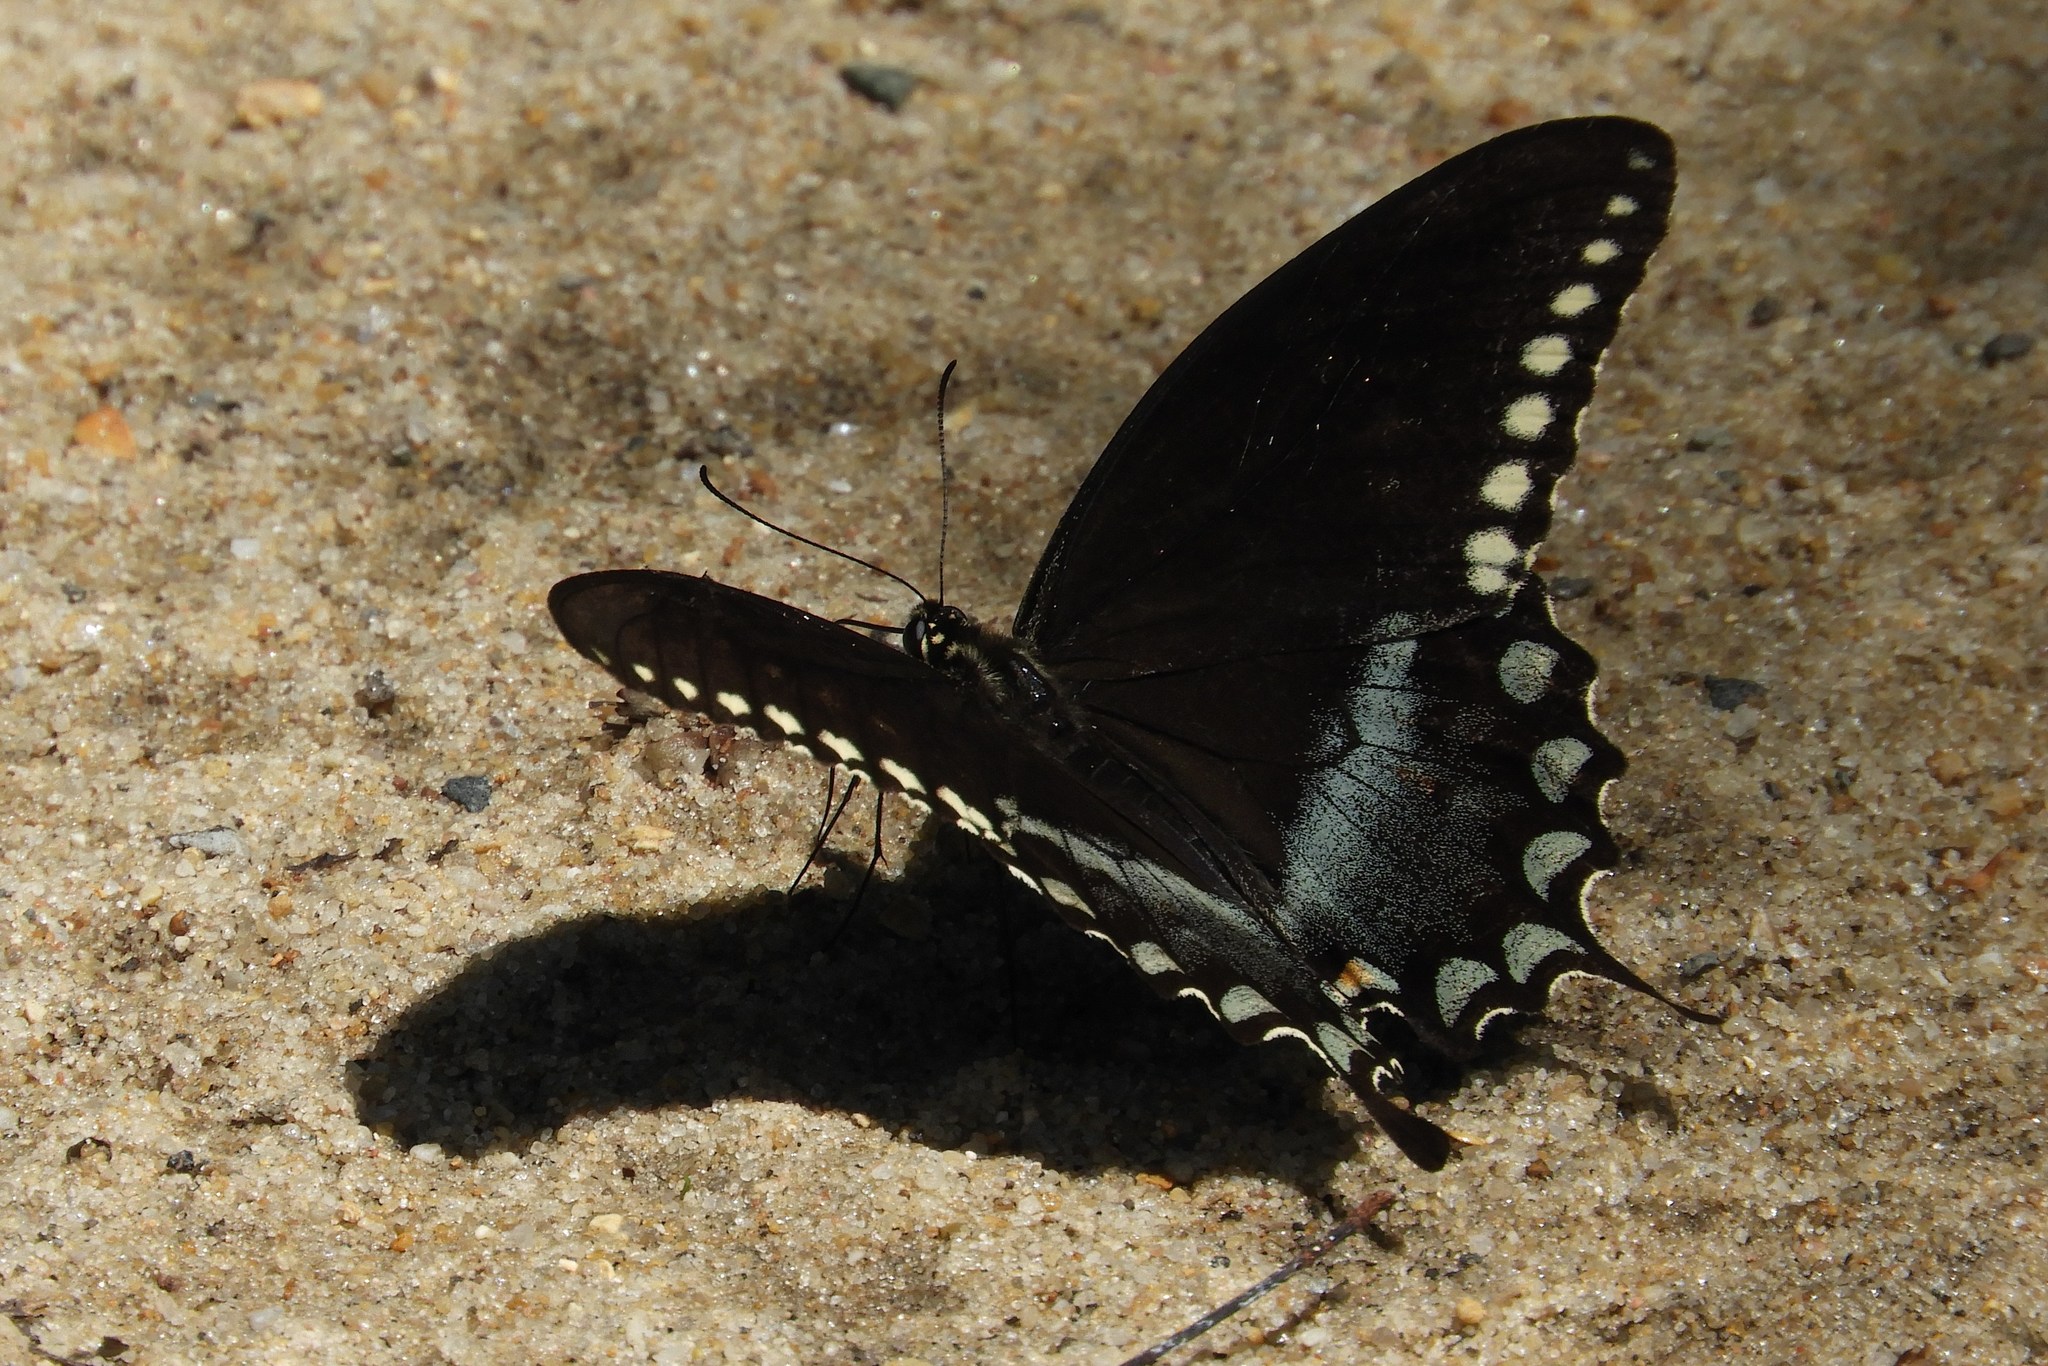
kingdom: Animalia
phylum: Arthropoda
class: Insecta
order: Lepidoptera
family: Papilionidae
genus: Papilio
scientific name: Papilio troilus
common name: Spicebush swallowtail
